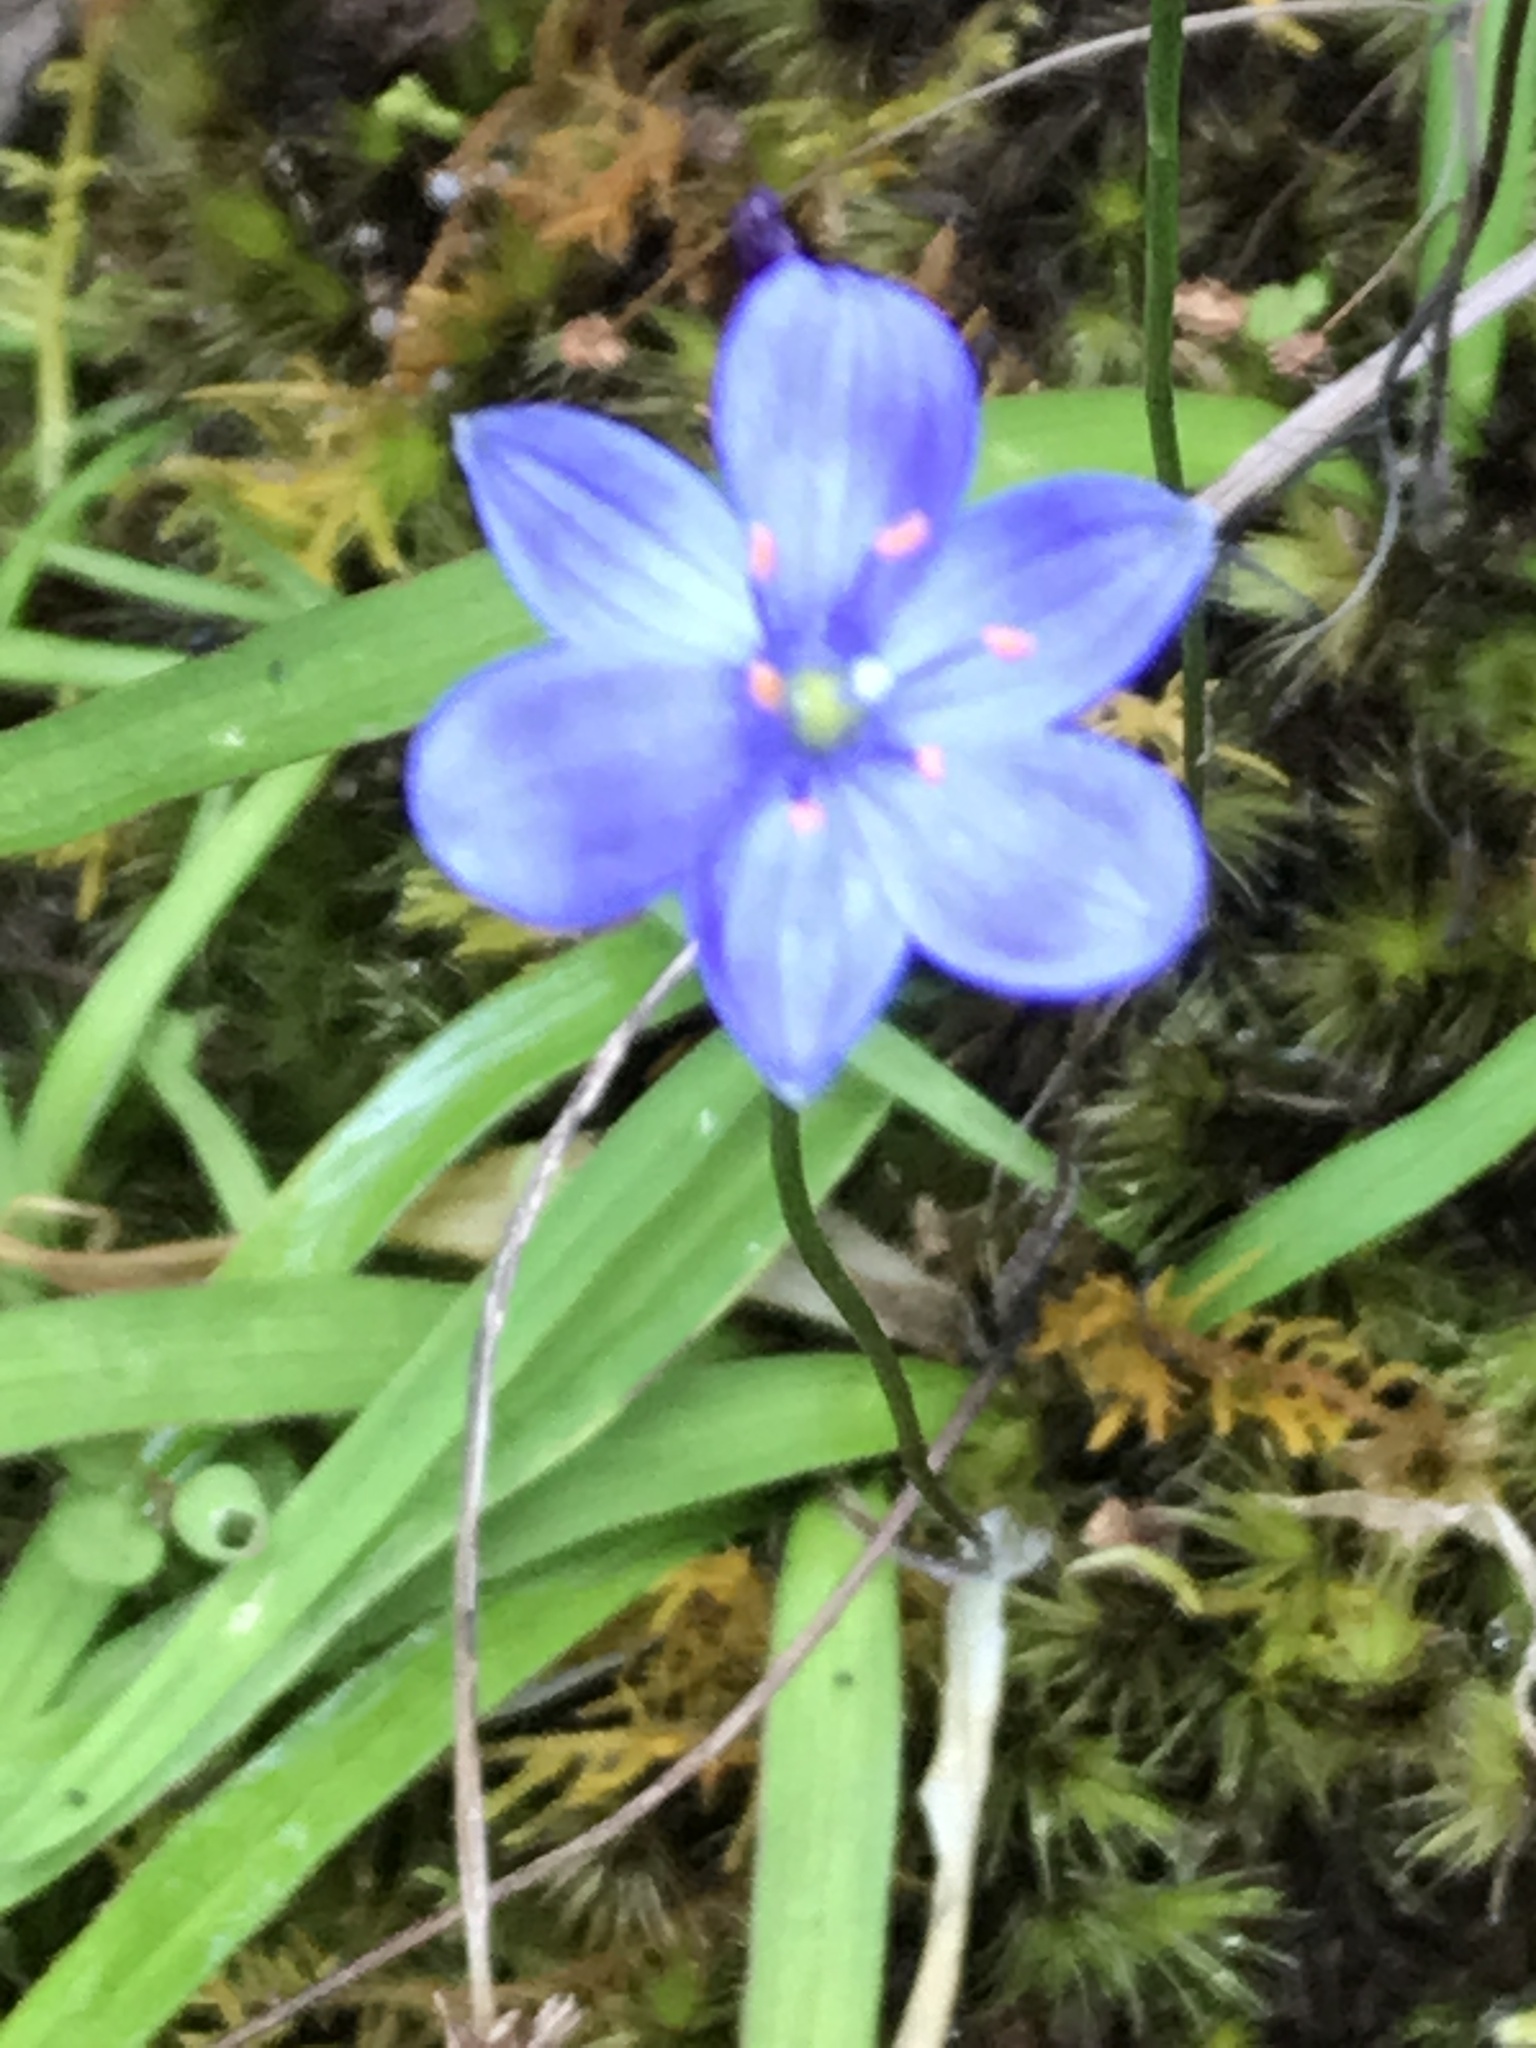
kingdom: Plantae
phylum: Tracheophyta
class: Liliopsida
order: Asparagales
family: Asphodelaceae
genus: Chamaescilla
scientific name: Chamaescilla corymbosa
